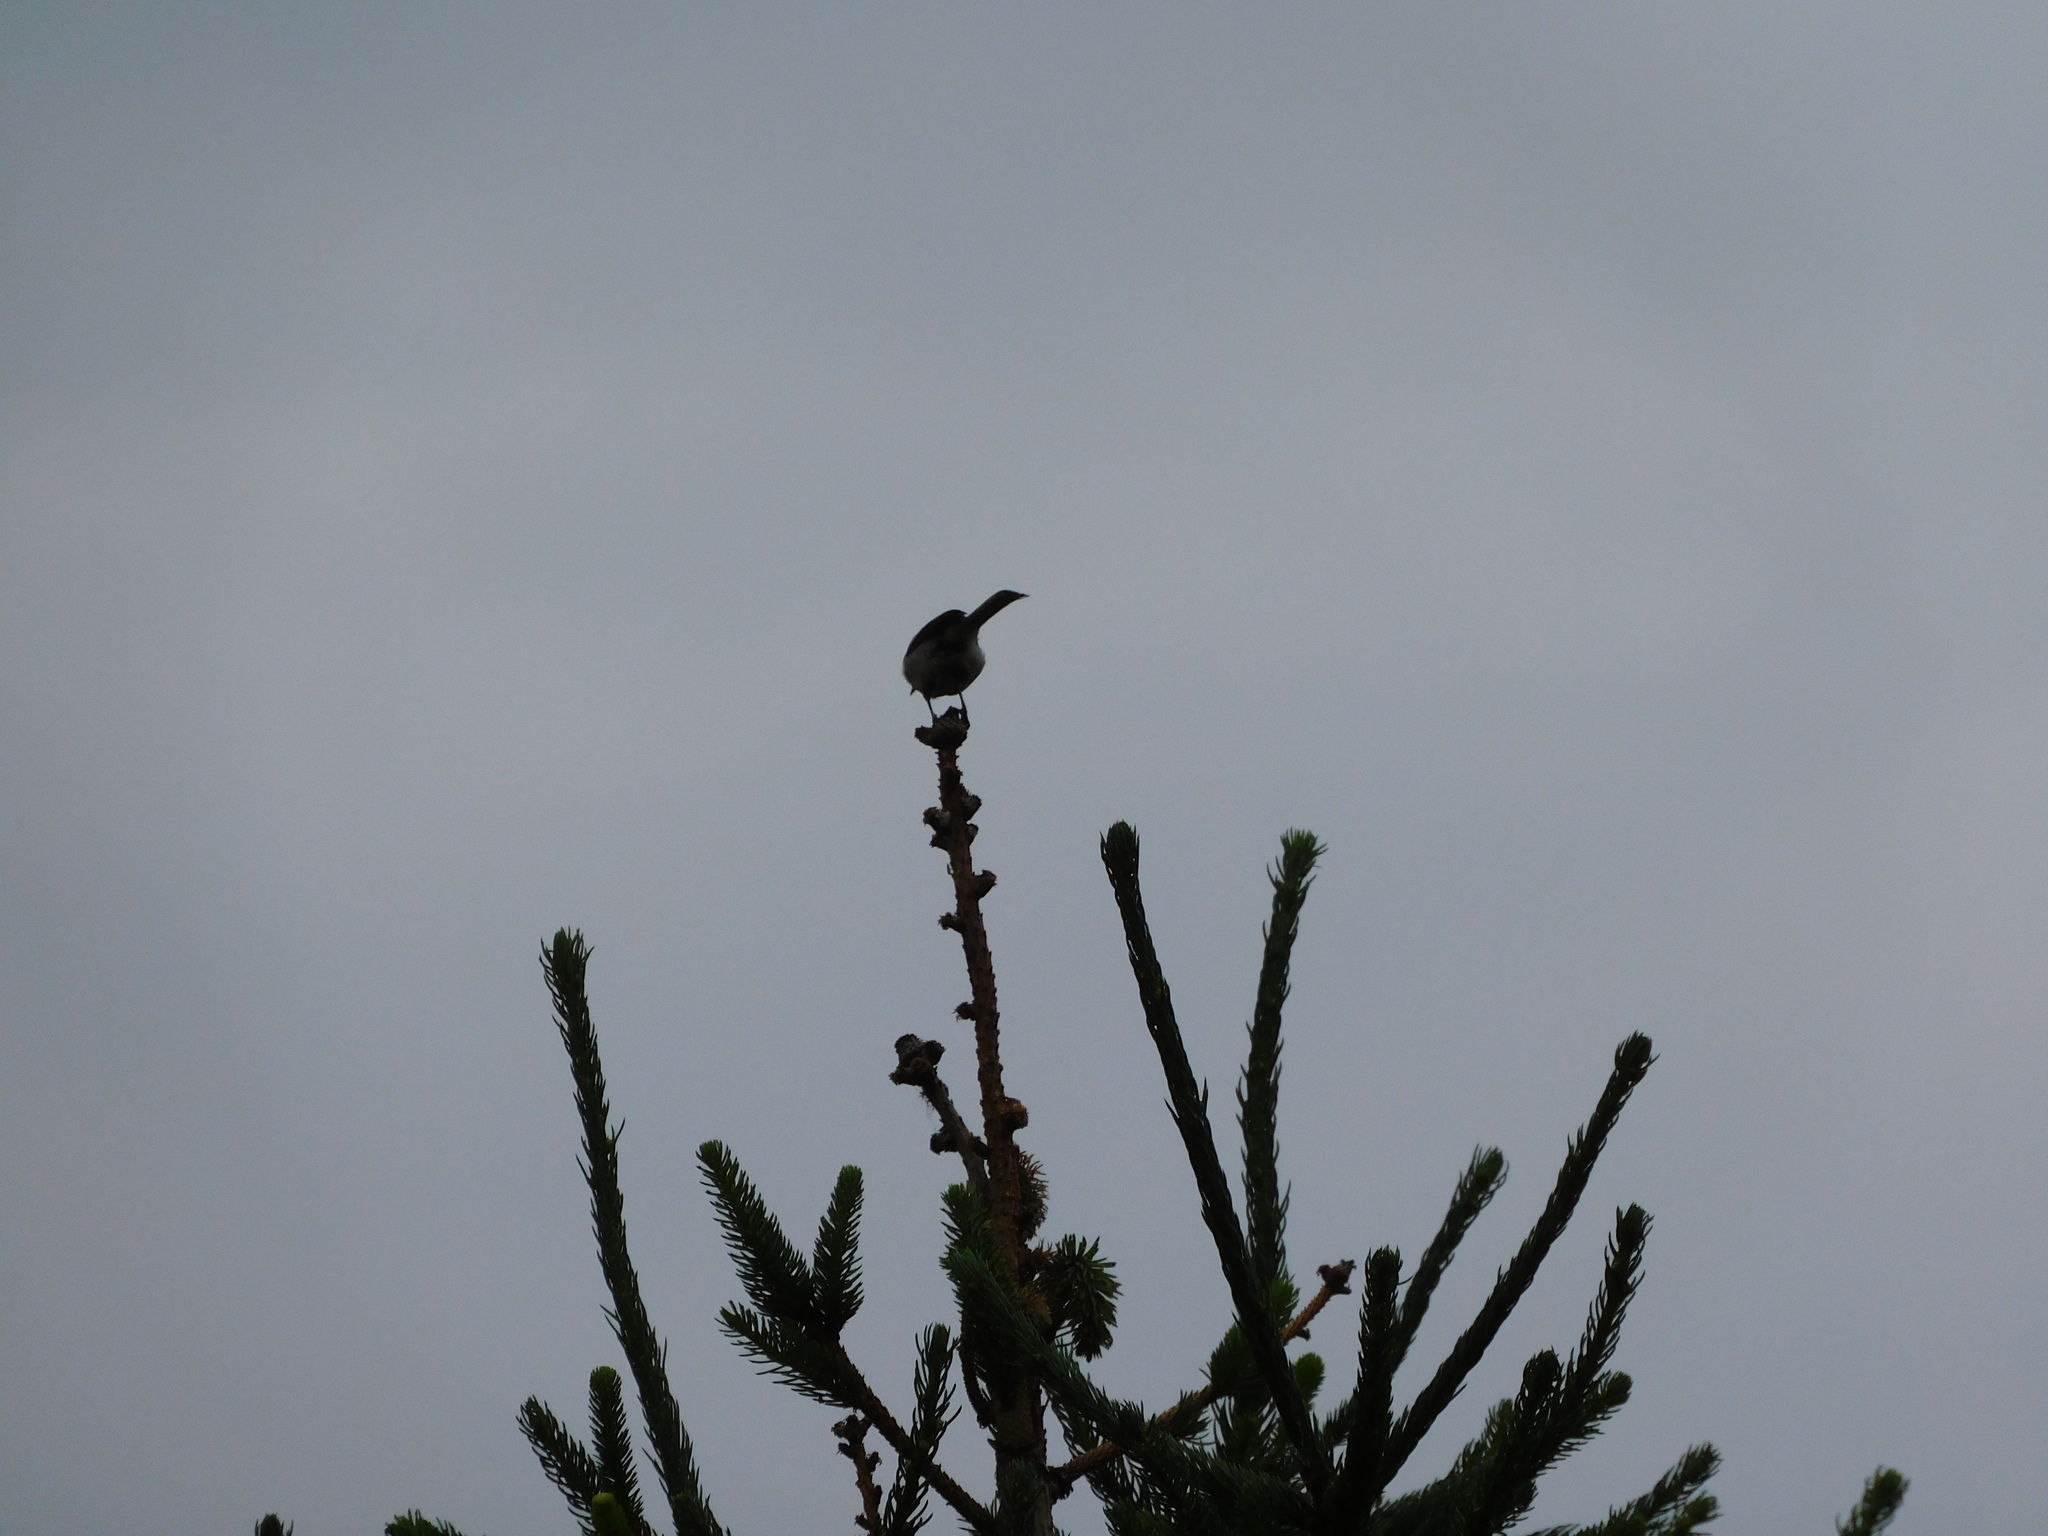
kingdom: Animalia
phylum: Chordata
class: Aves
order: Passeriformes
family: Paridae
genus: Poecile
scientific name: Poecile carolinensis
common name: Carolina chickadee
